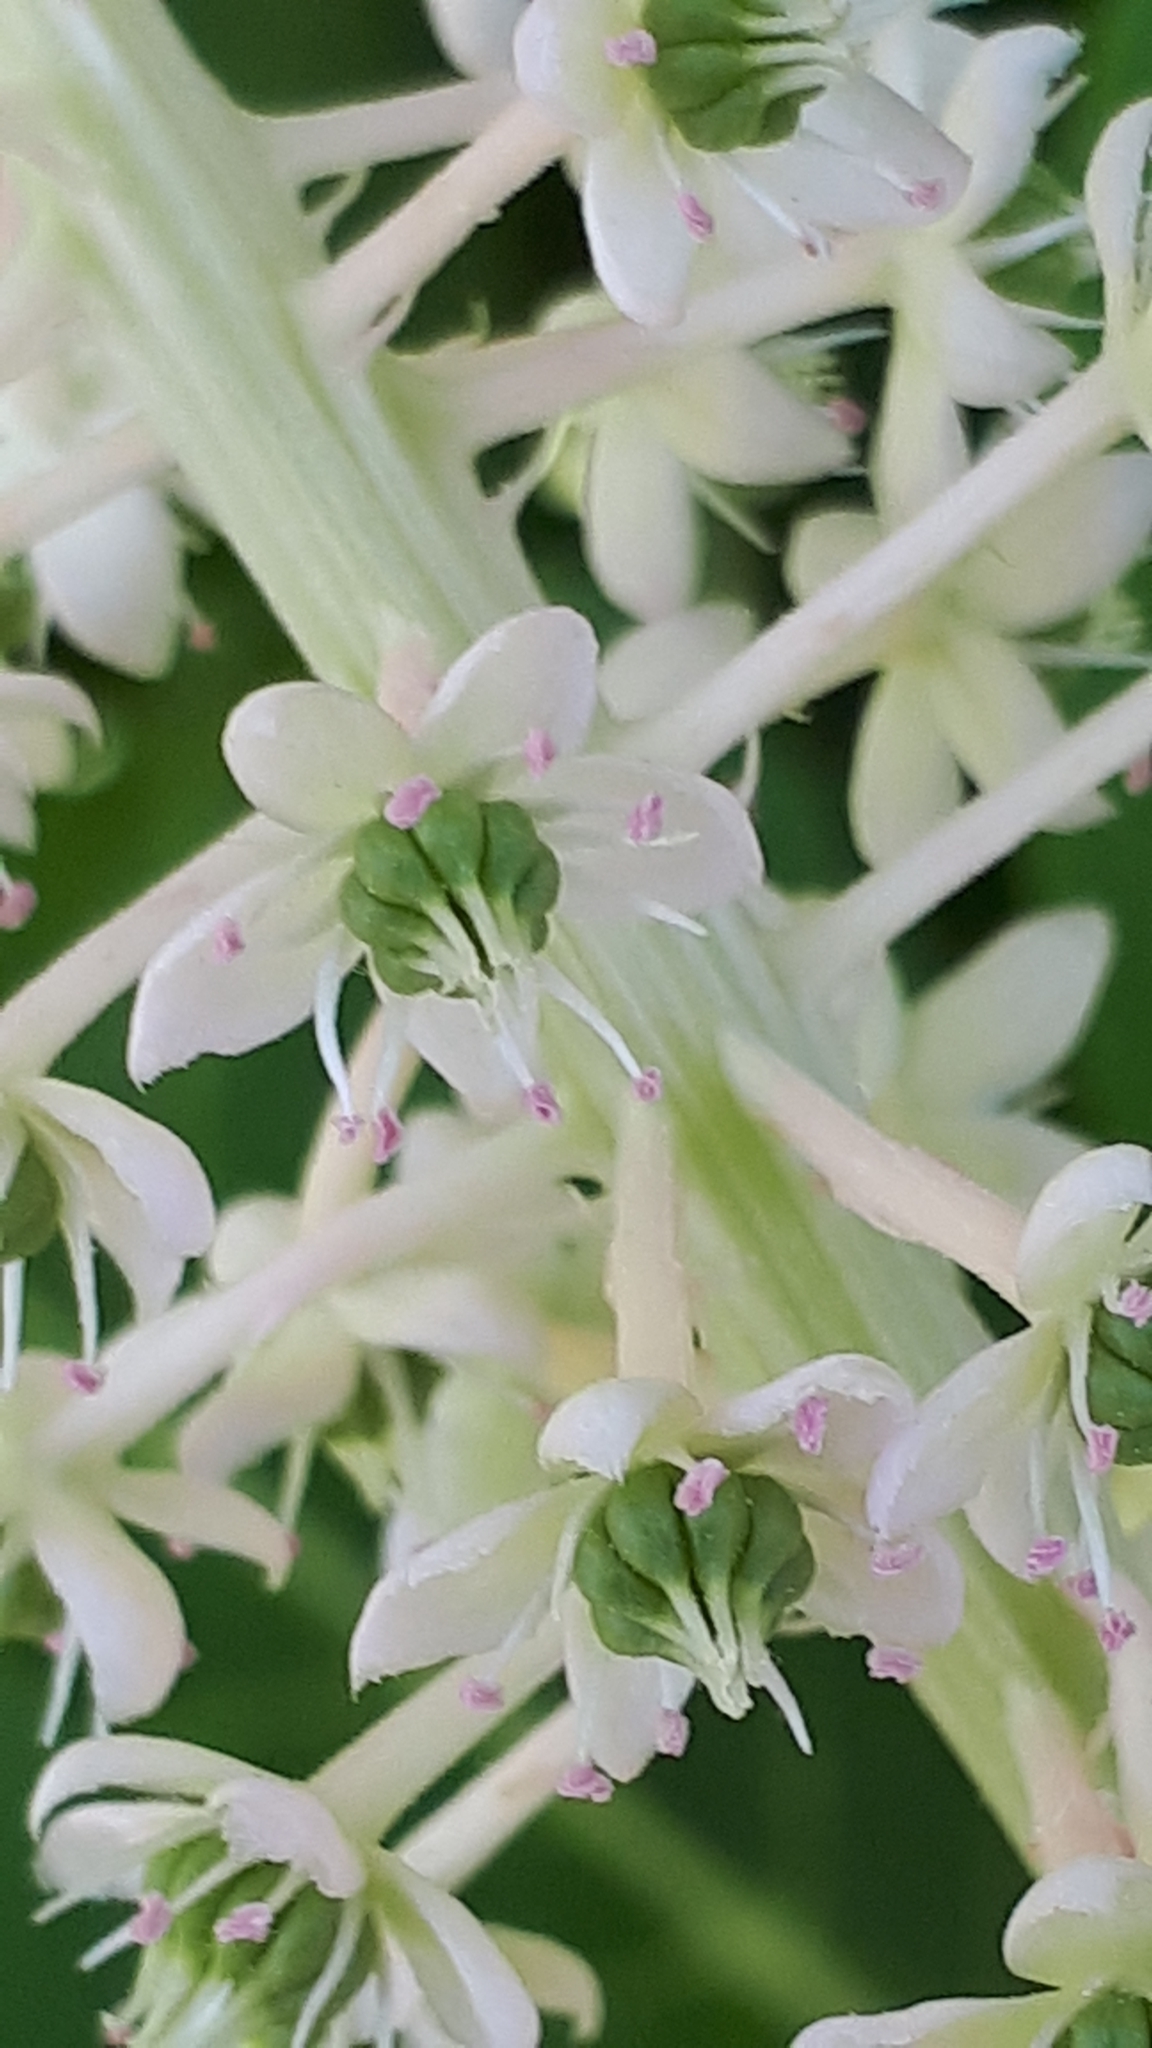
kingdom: Plantae
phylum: Tracheophyta
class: Magnoliopsida
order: Caryophyllales
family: Phytolaccaceae
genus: Phytolacca
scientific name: Phytolacca acinosa
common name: Indian pokeweed
